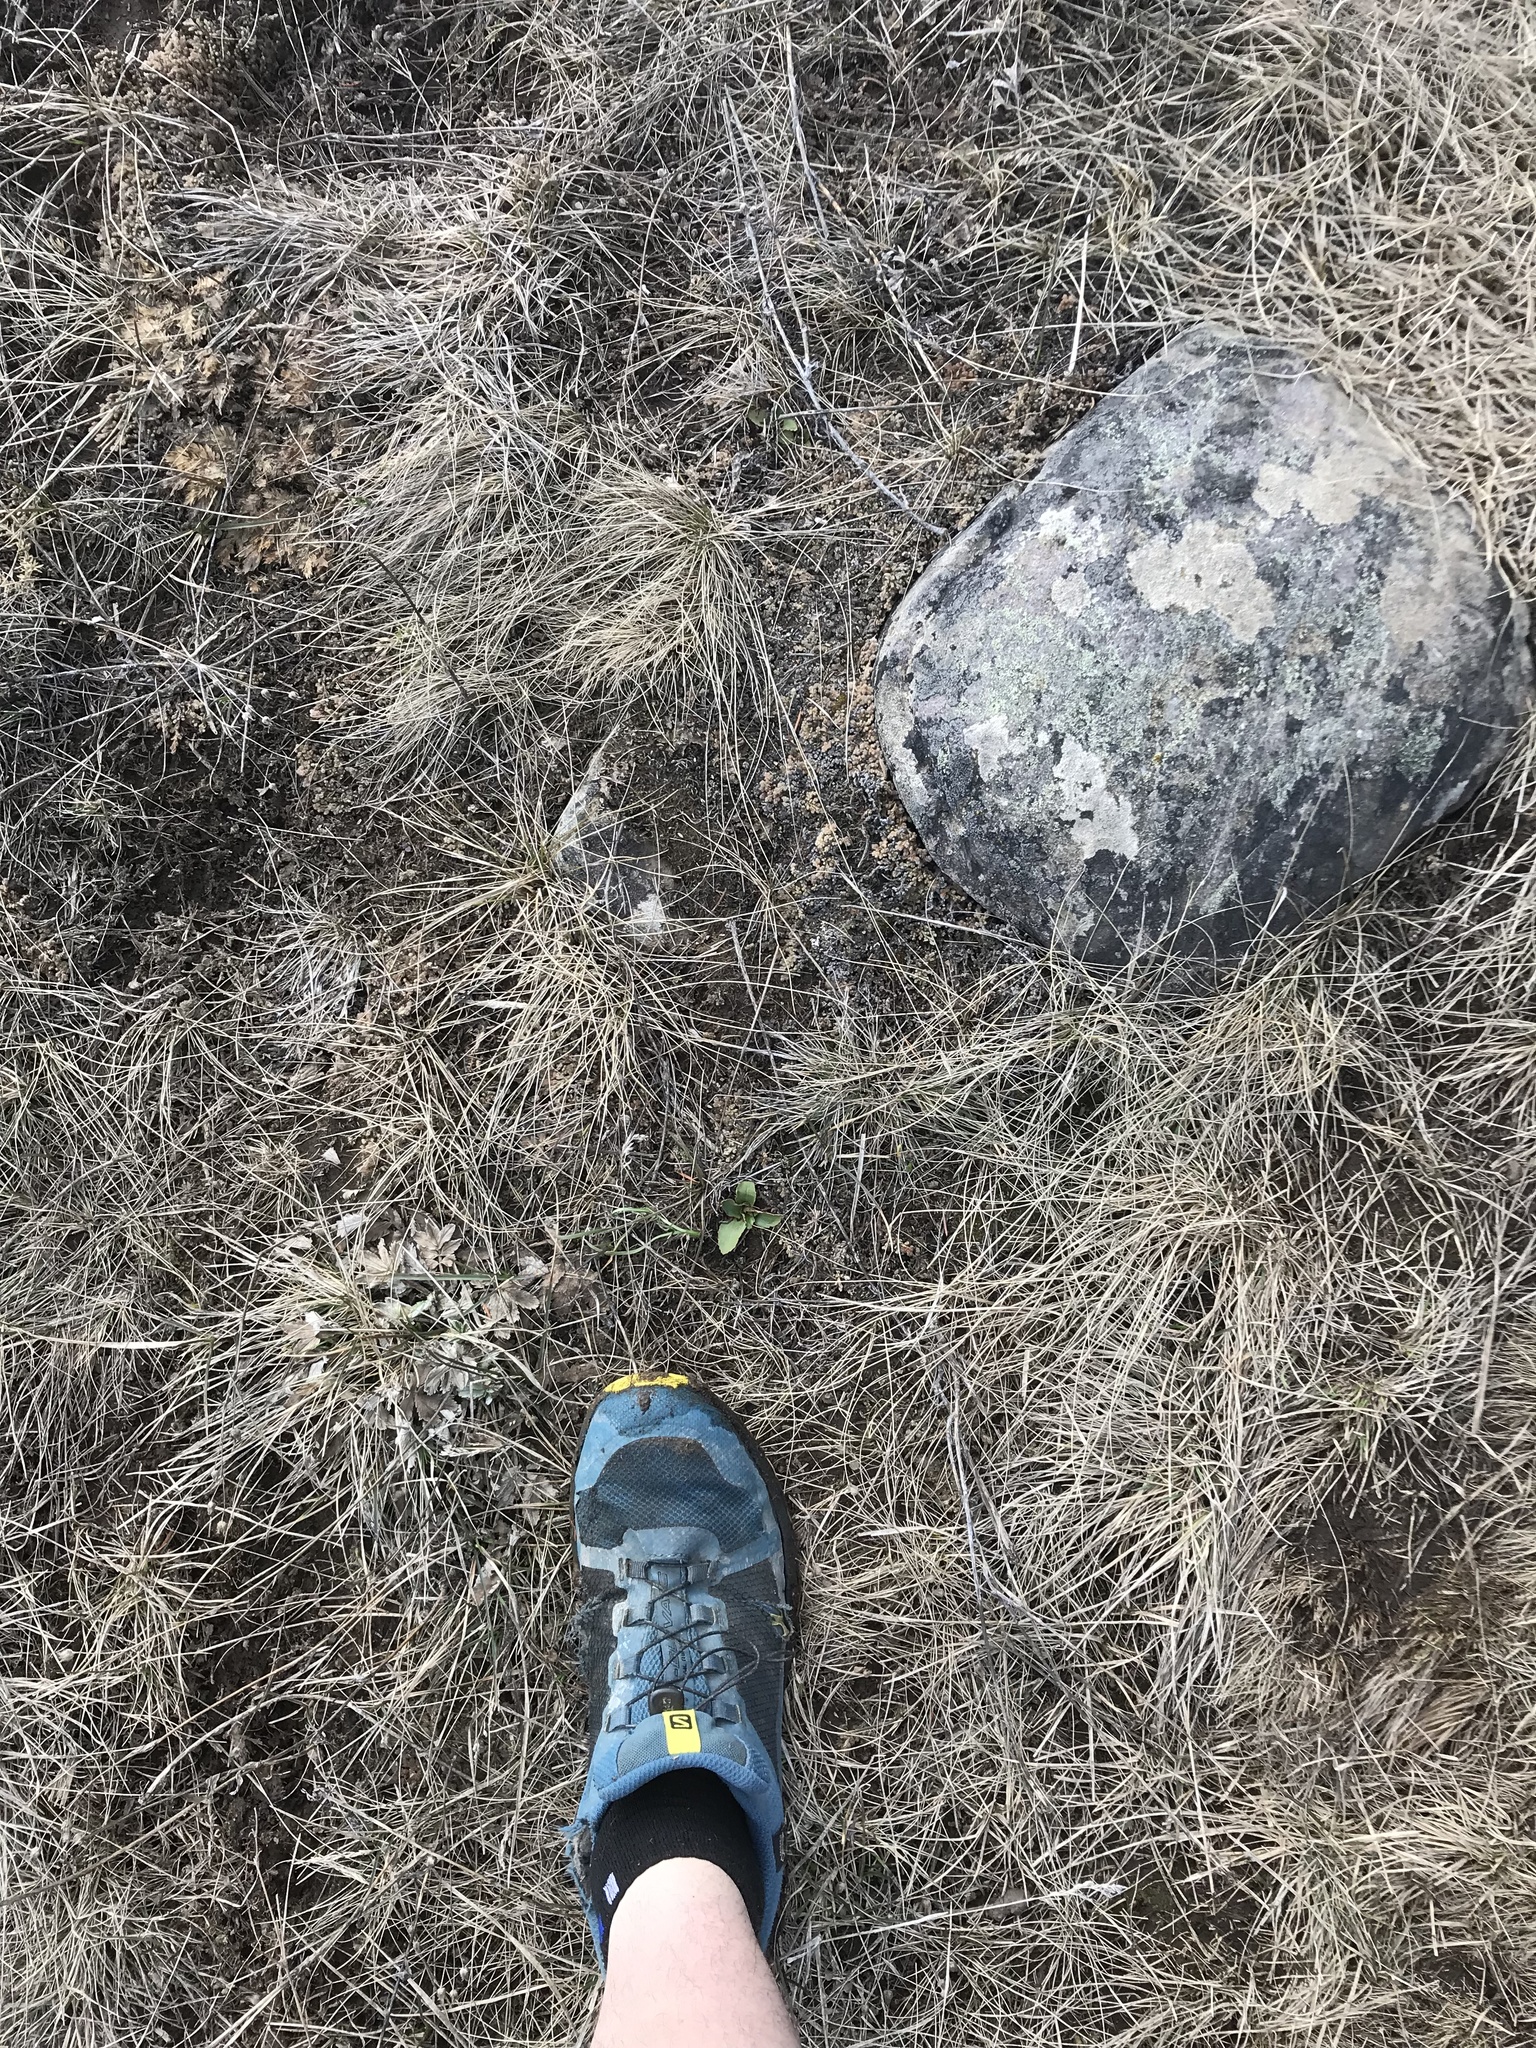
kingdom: Plantae
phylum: Tracheophyta
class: Magnoliopsida
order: Saxifragales
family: Saxifragaceae
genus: Micranthes
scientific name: Micranthes occidentalis
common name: Alberta saxifrage
